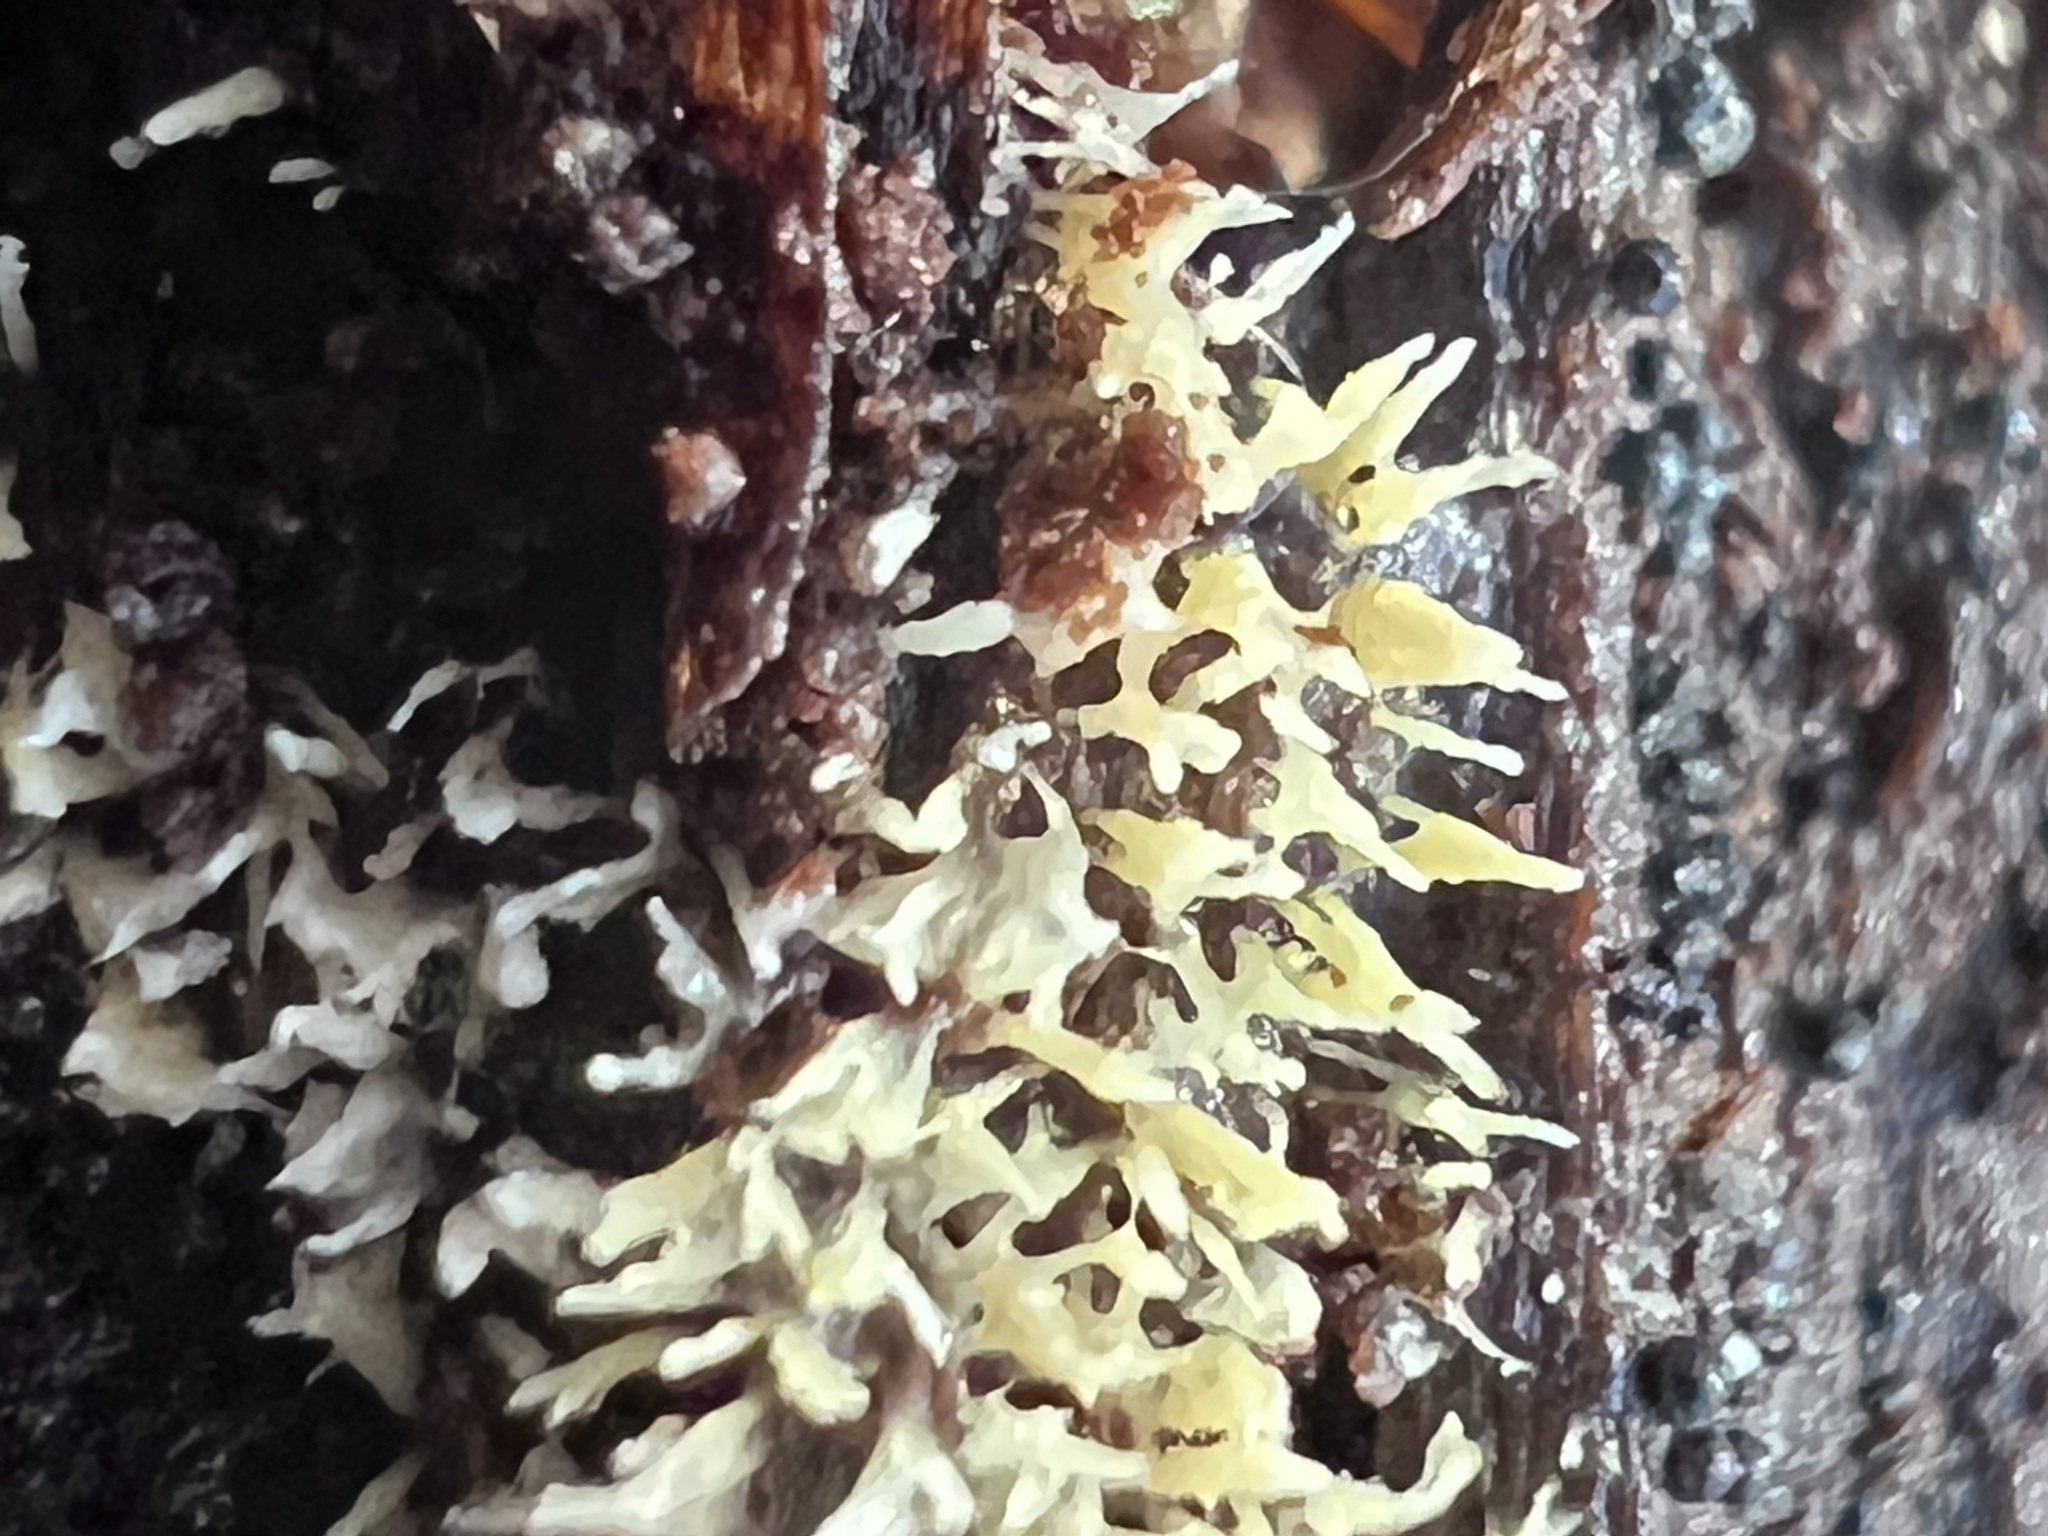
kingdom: Fungi
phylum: Basidiomycota
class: Agaricomycetes
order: Agaricales
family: Clavariaceae
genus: Mucronella
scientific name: Mucronella flava
